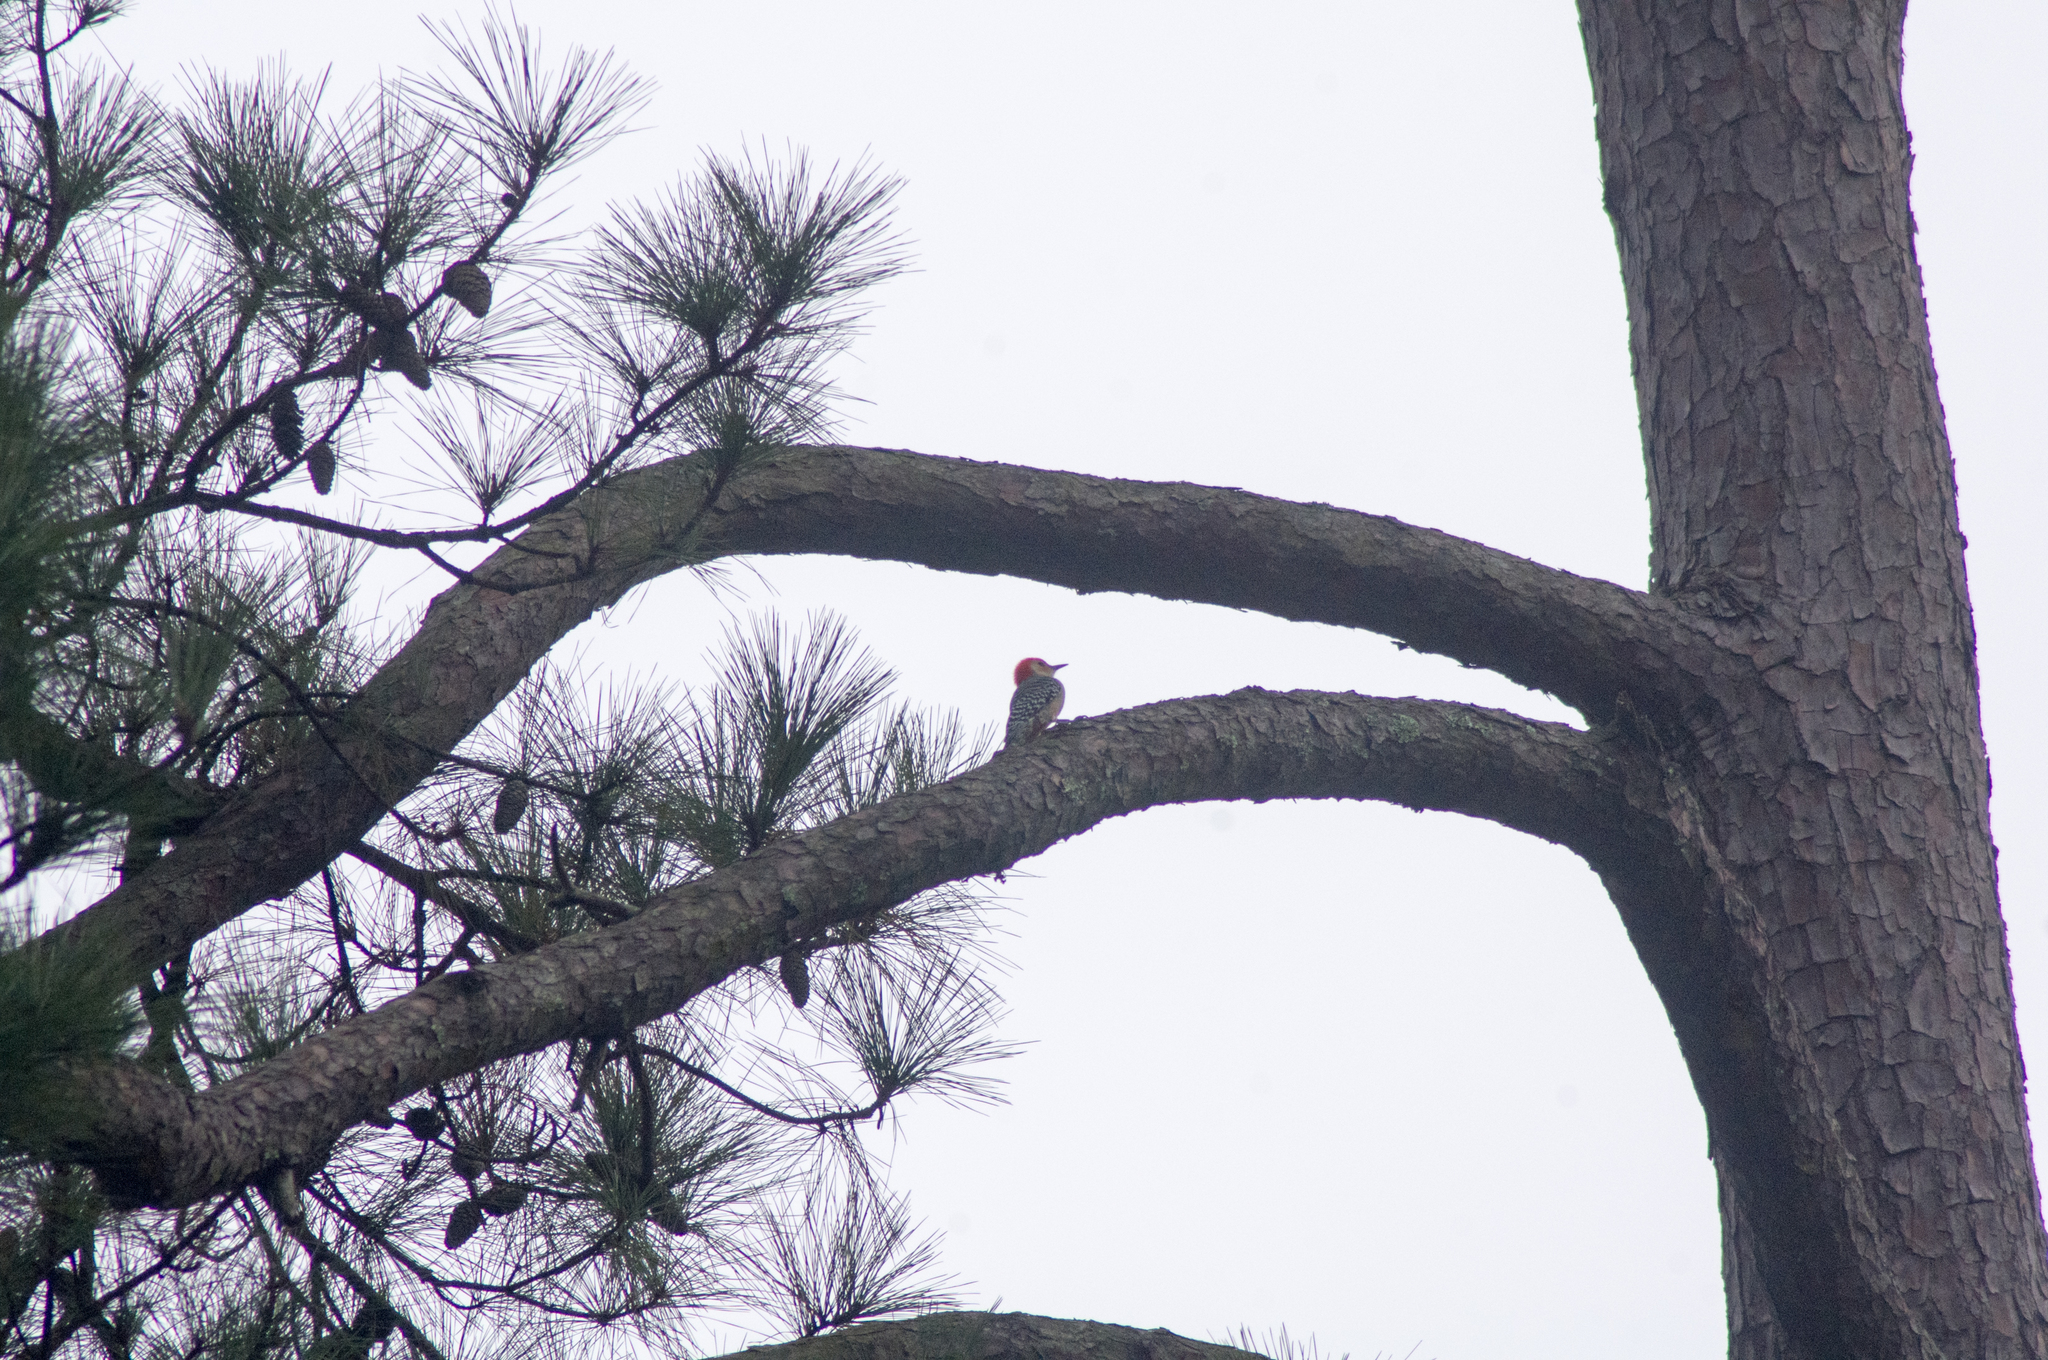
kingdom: Animalia
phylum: Chordata
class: Aves
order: Piciformes
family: Picidae
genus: Melanerpes
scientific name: Melanerpes carolinus
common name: Red-bellied woodpecker
